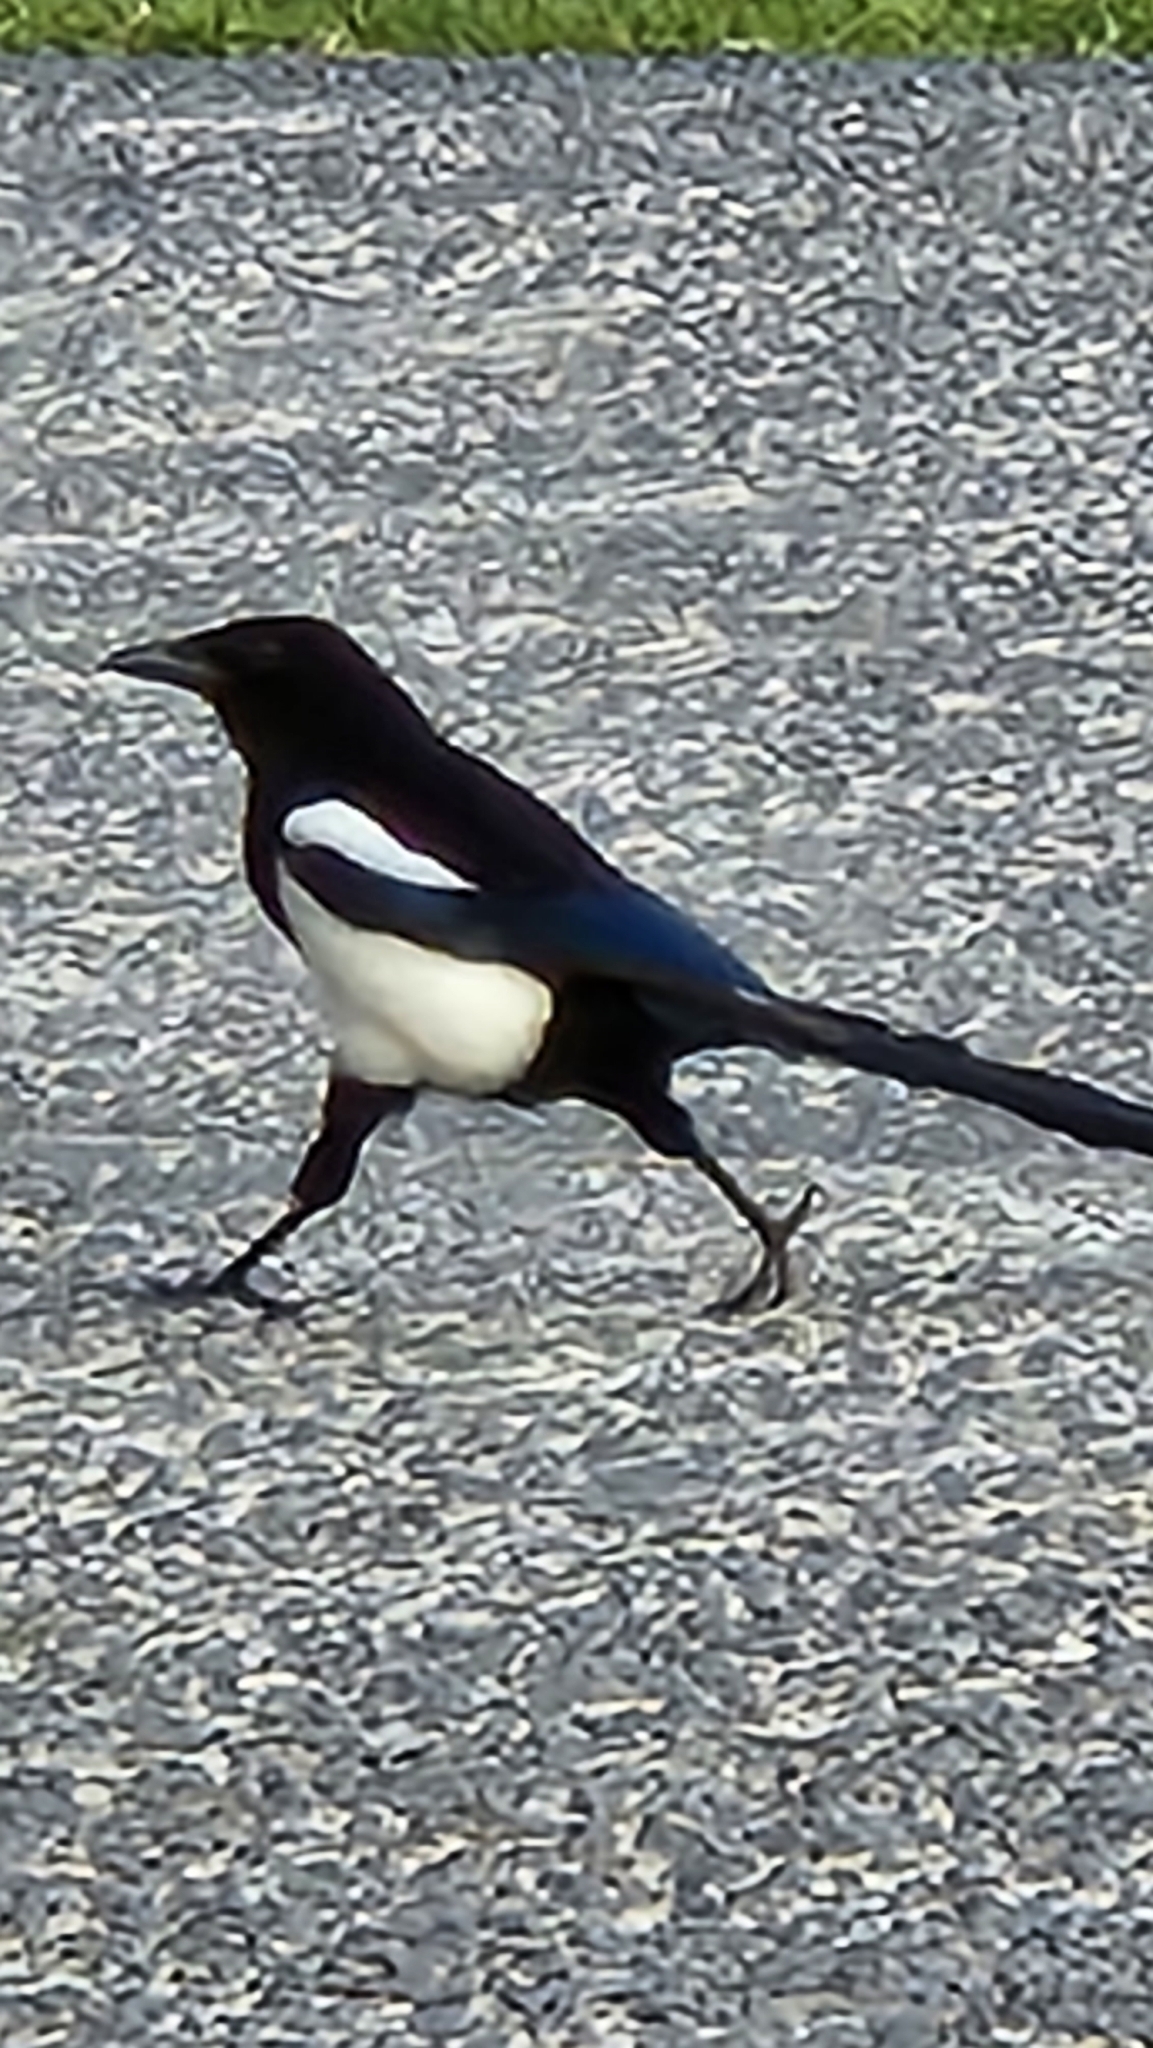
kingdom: Animalia
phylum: Chordata
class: Aves
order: Passeriformes
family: Corvidae
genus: Pica
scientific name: Pica pica
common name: Eurasian magpie
